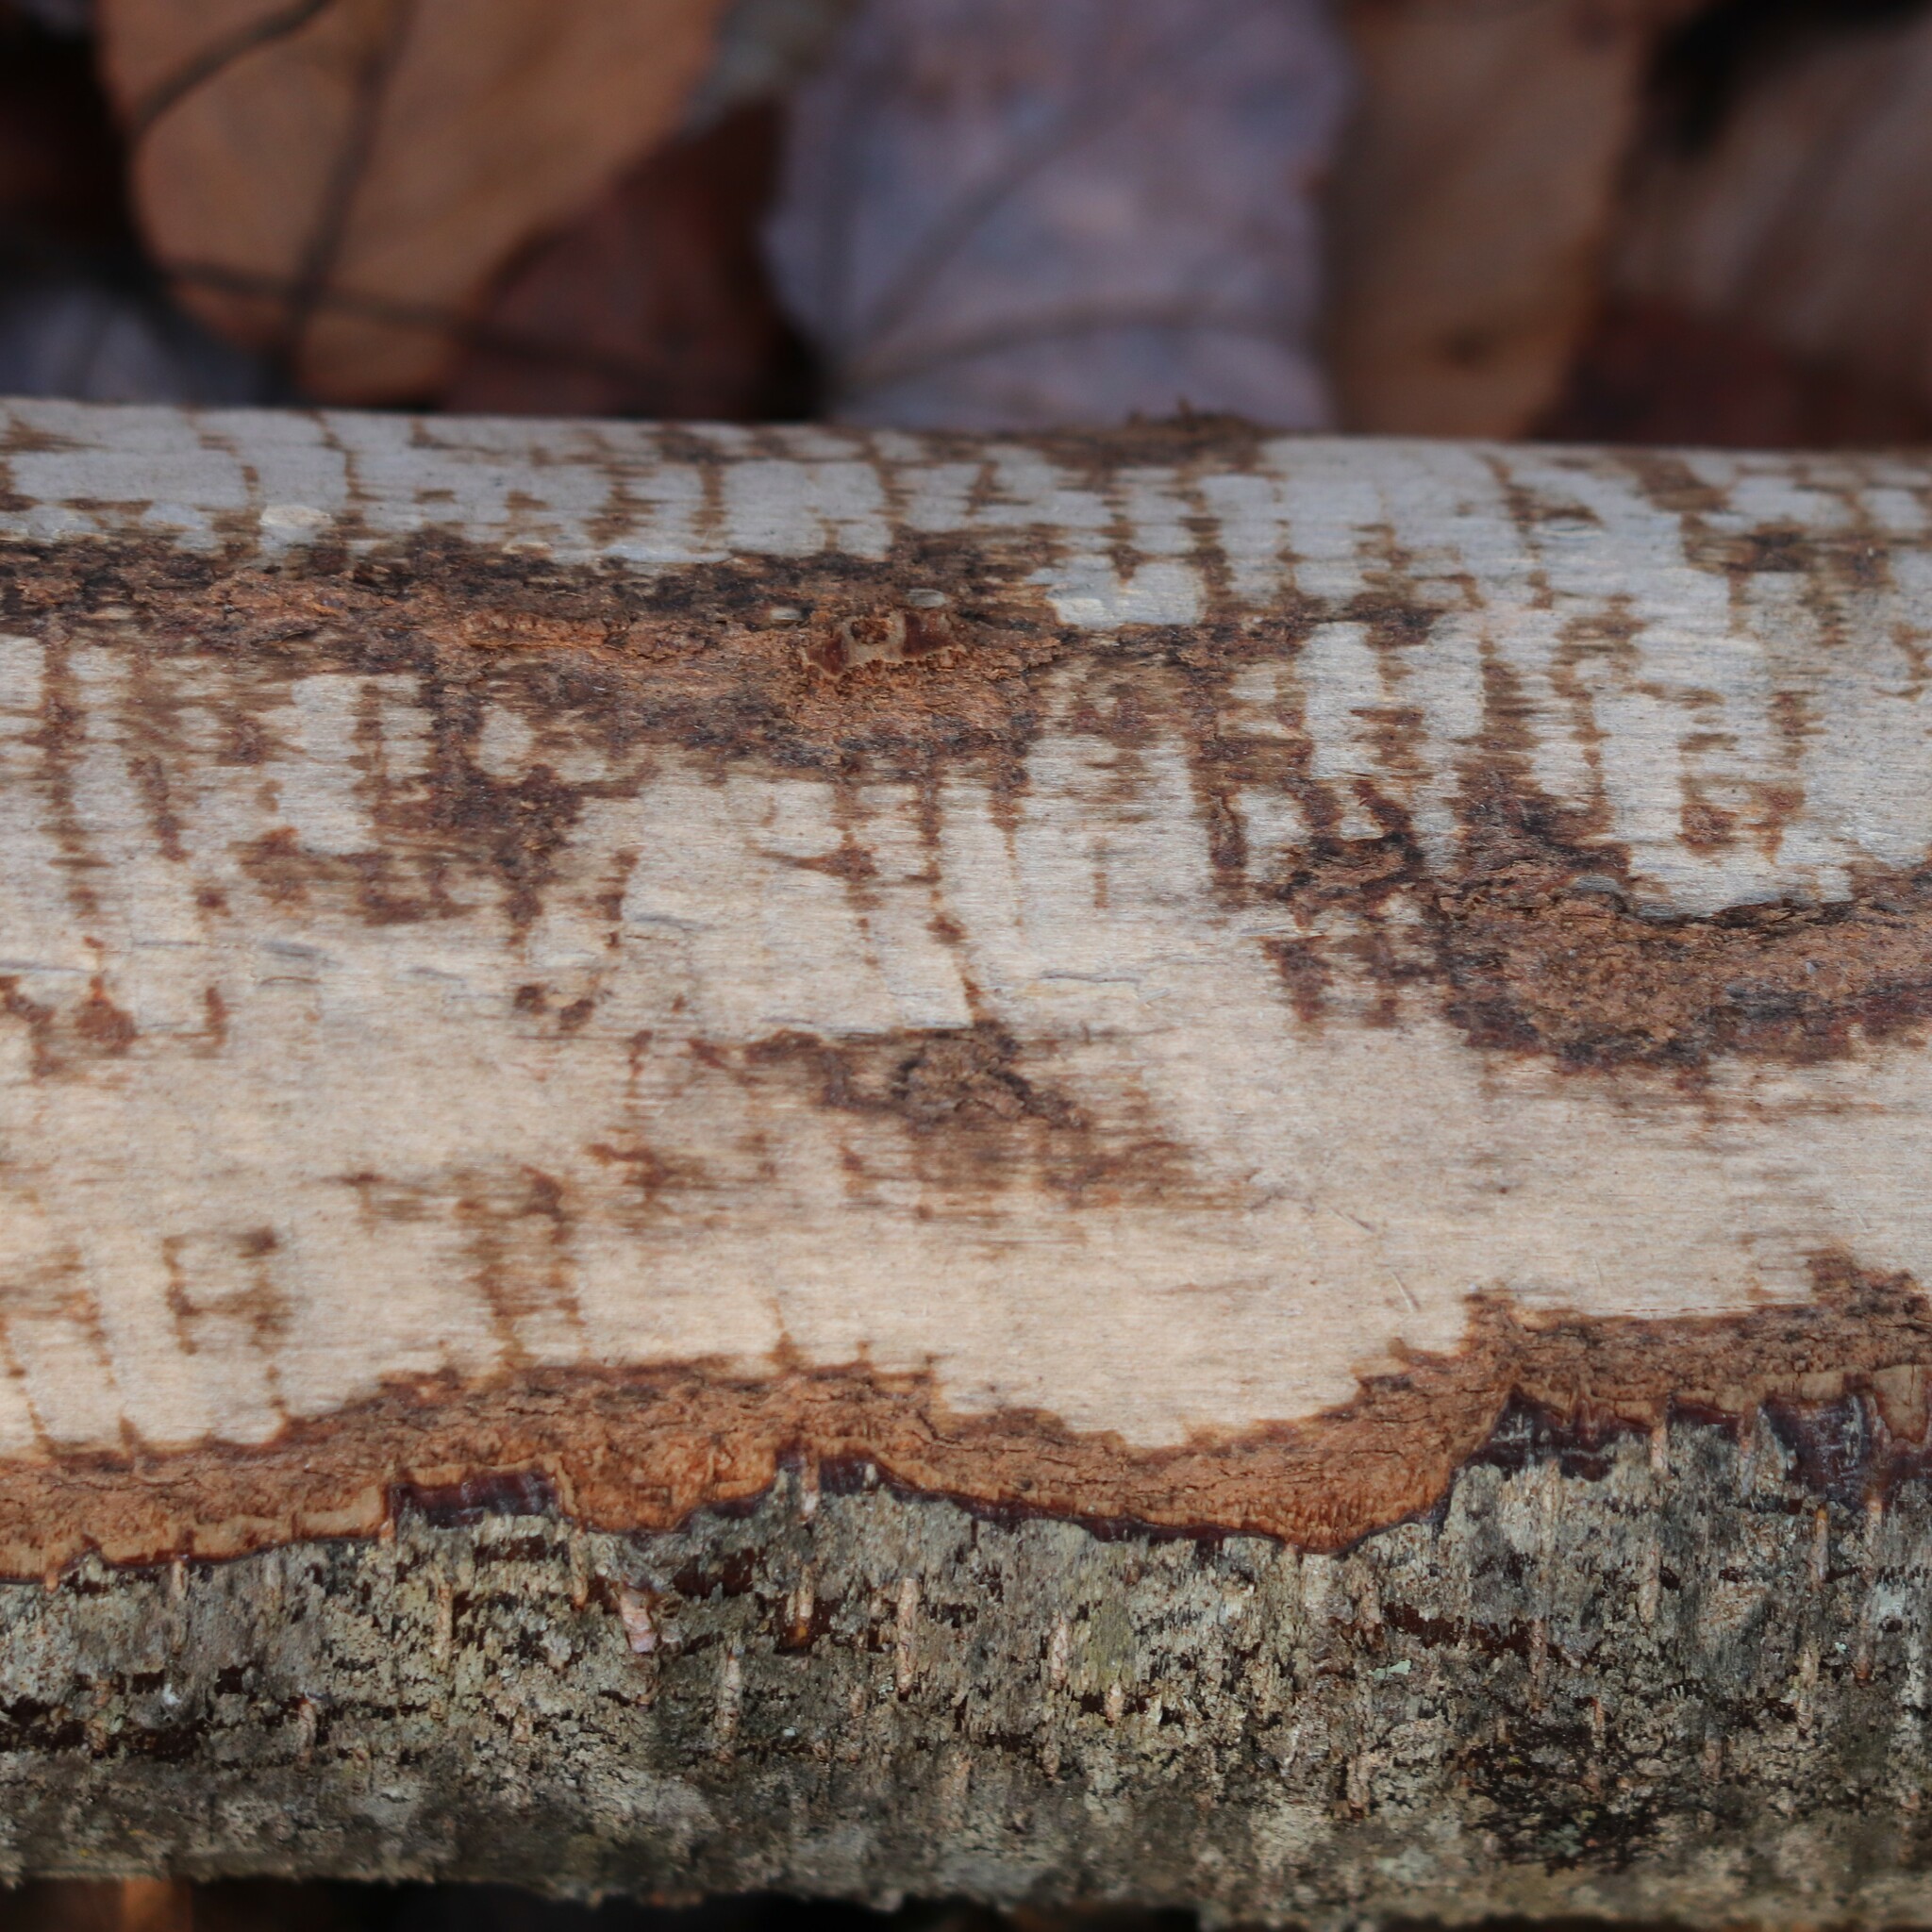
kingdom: Animalia
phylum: Chordata
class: Mammalia
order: Rodentia
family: Castoridae
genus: Castor
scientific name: Castor canadensis
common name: American beaver
